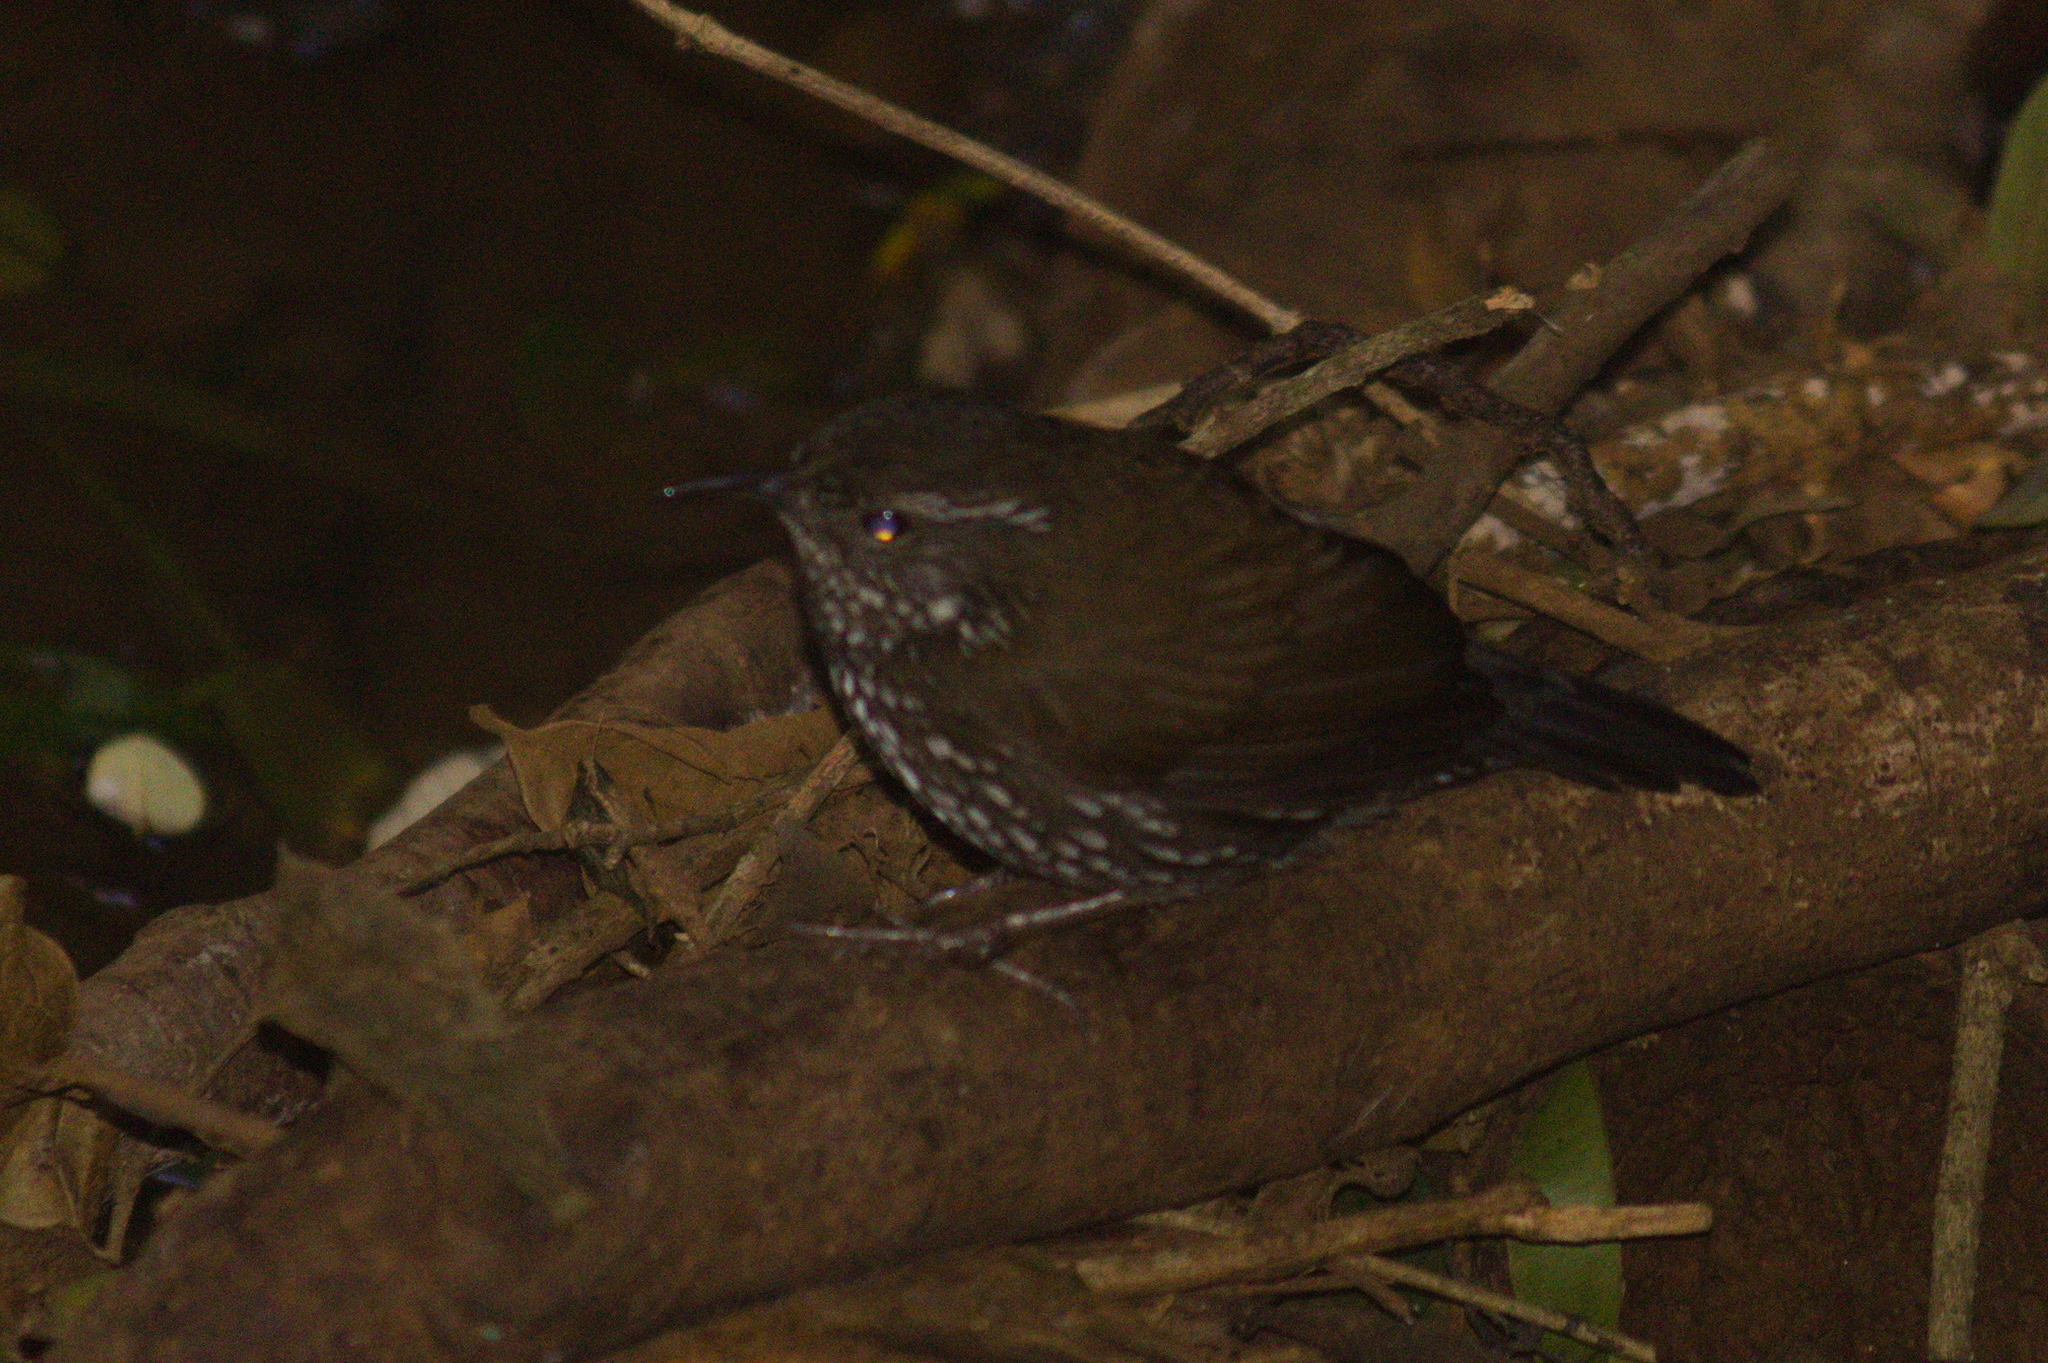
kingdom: Animalia
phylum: Chordata
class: Aves
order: Passeriformes
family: Furnariidae
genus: Lochmias
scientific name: Lochmias nematura
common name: Sharp-tailed streamcreeper
